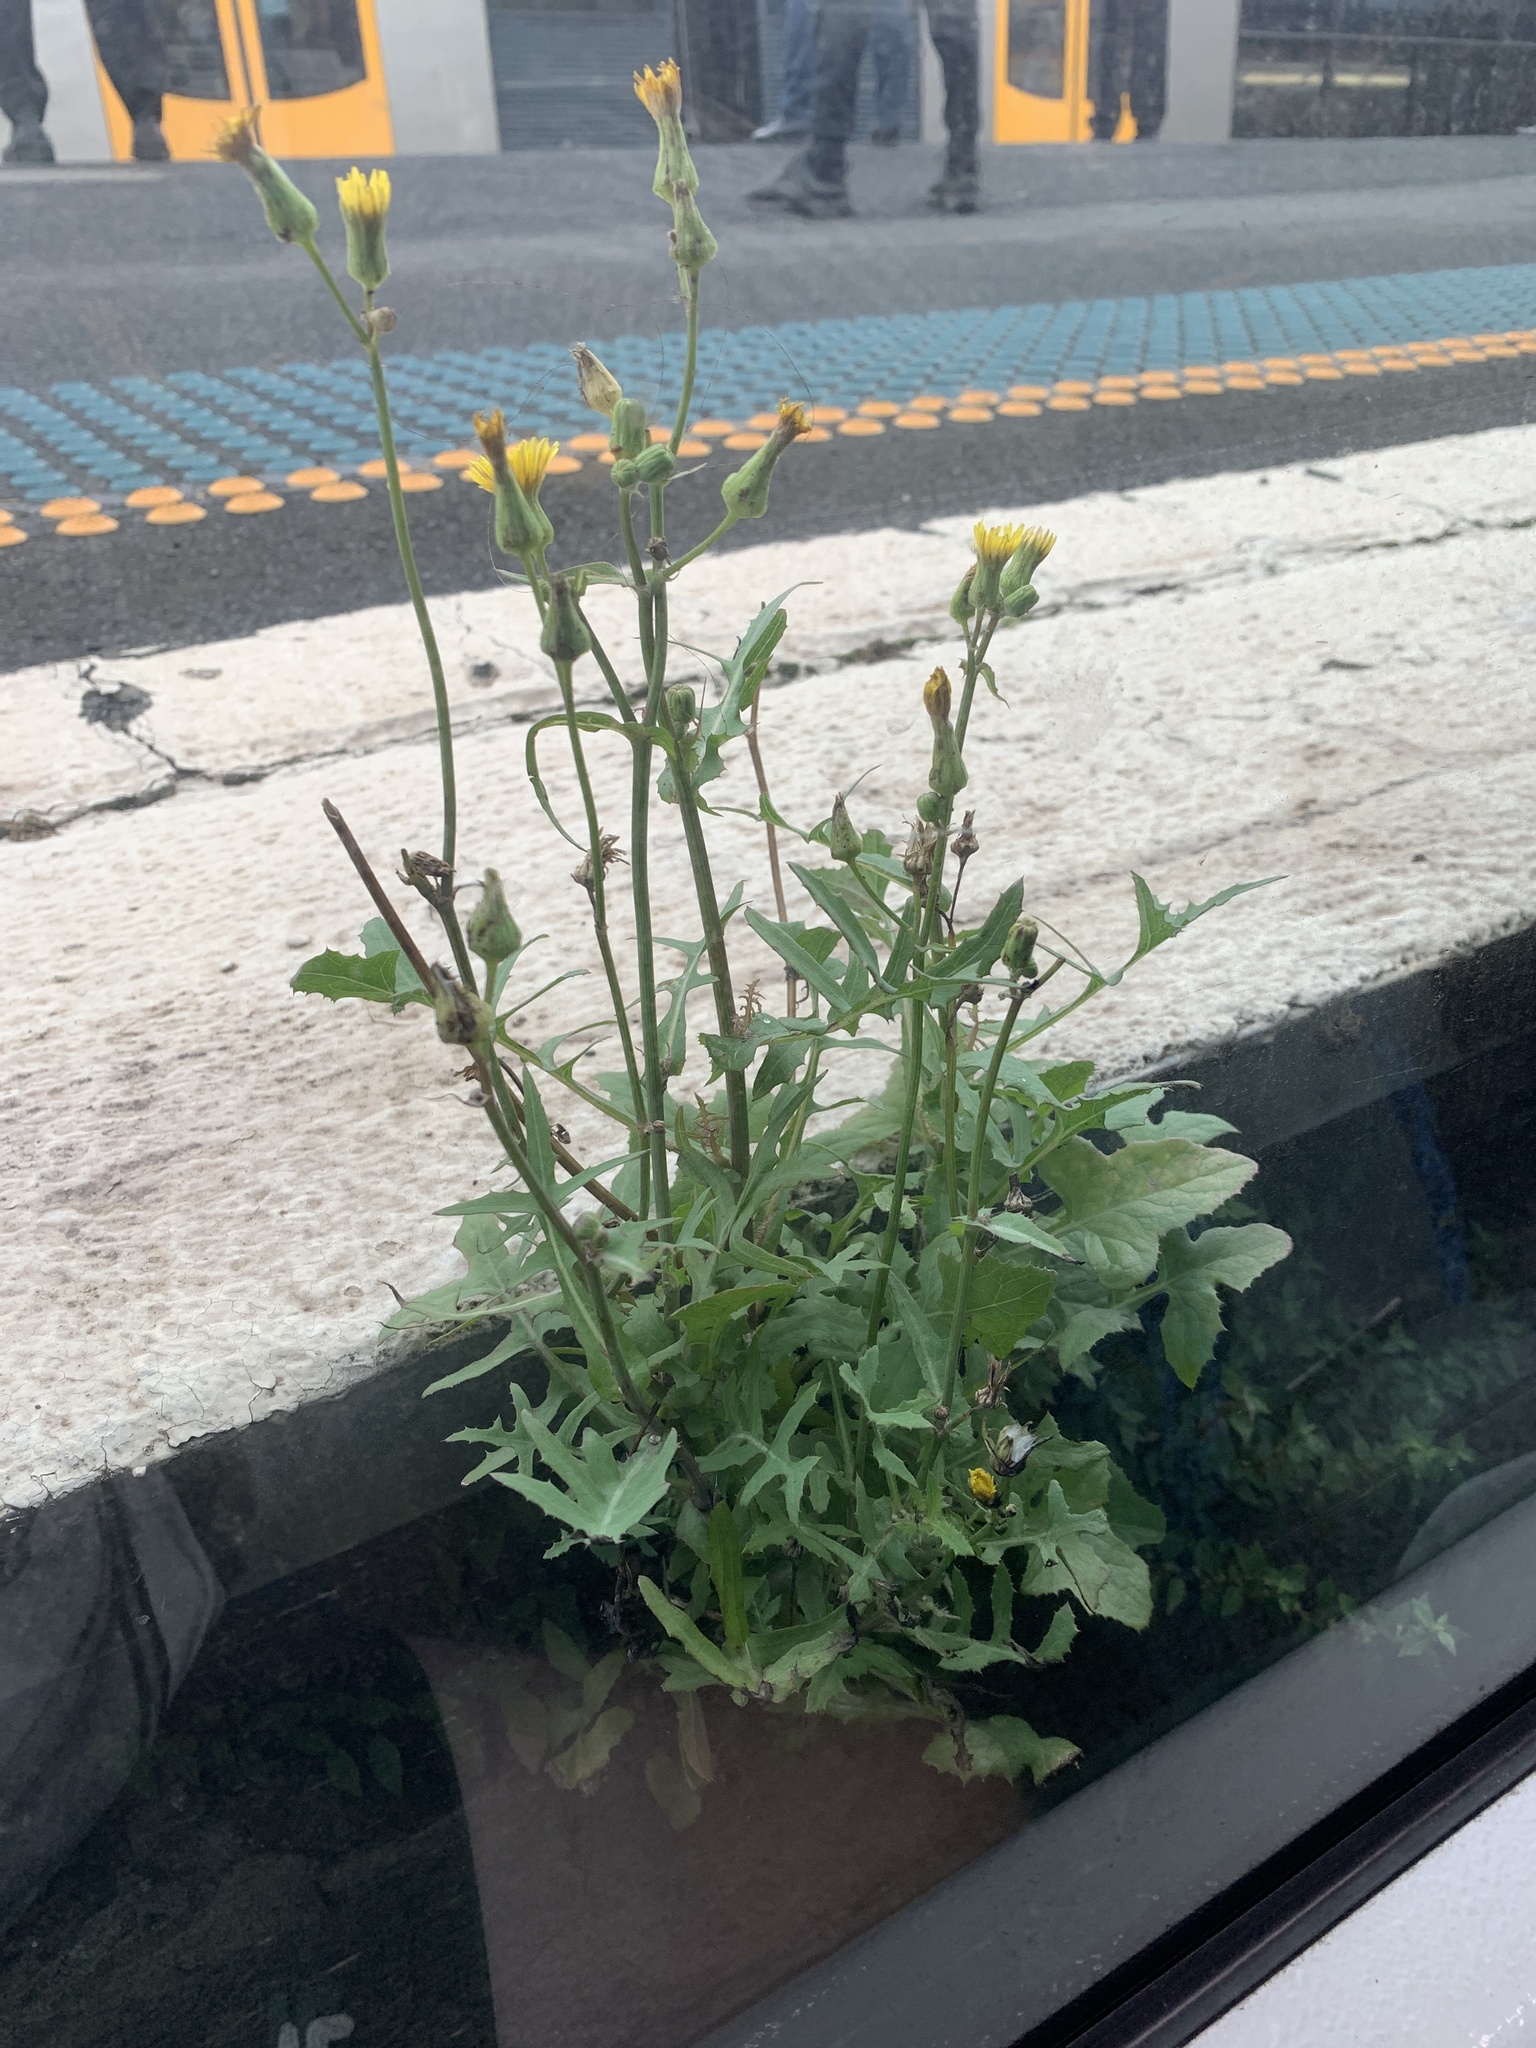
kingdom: Plantae
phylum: Tracheophyta
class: Magnoliopsida
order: Asterales
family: Asteraceae
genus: Sonchus
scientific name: Sonchus oleraceus
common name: Common sowthistle
